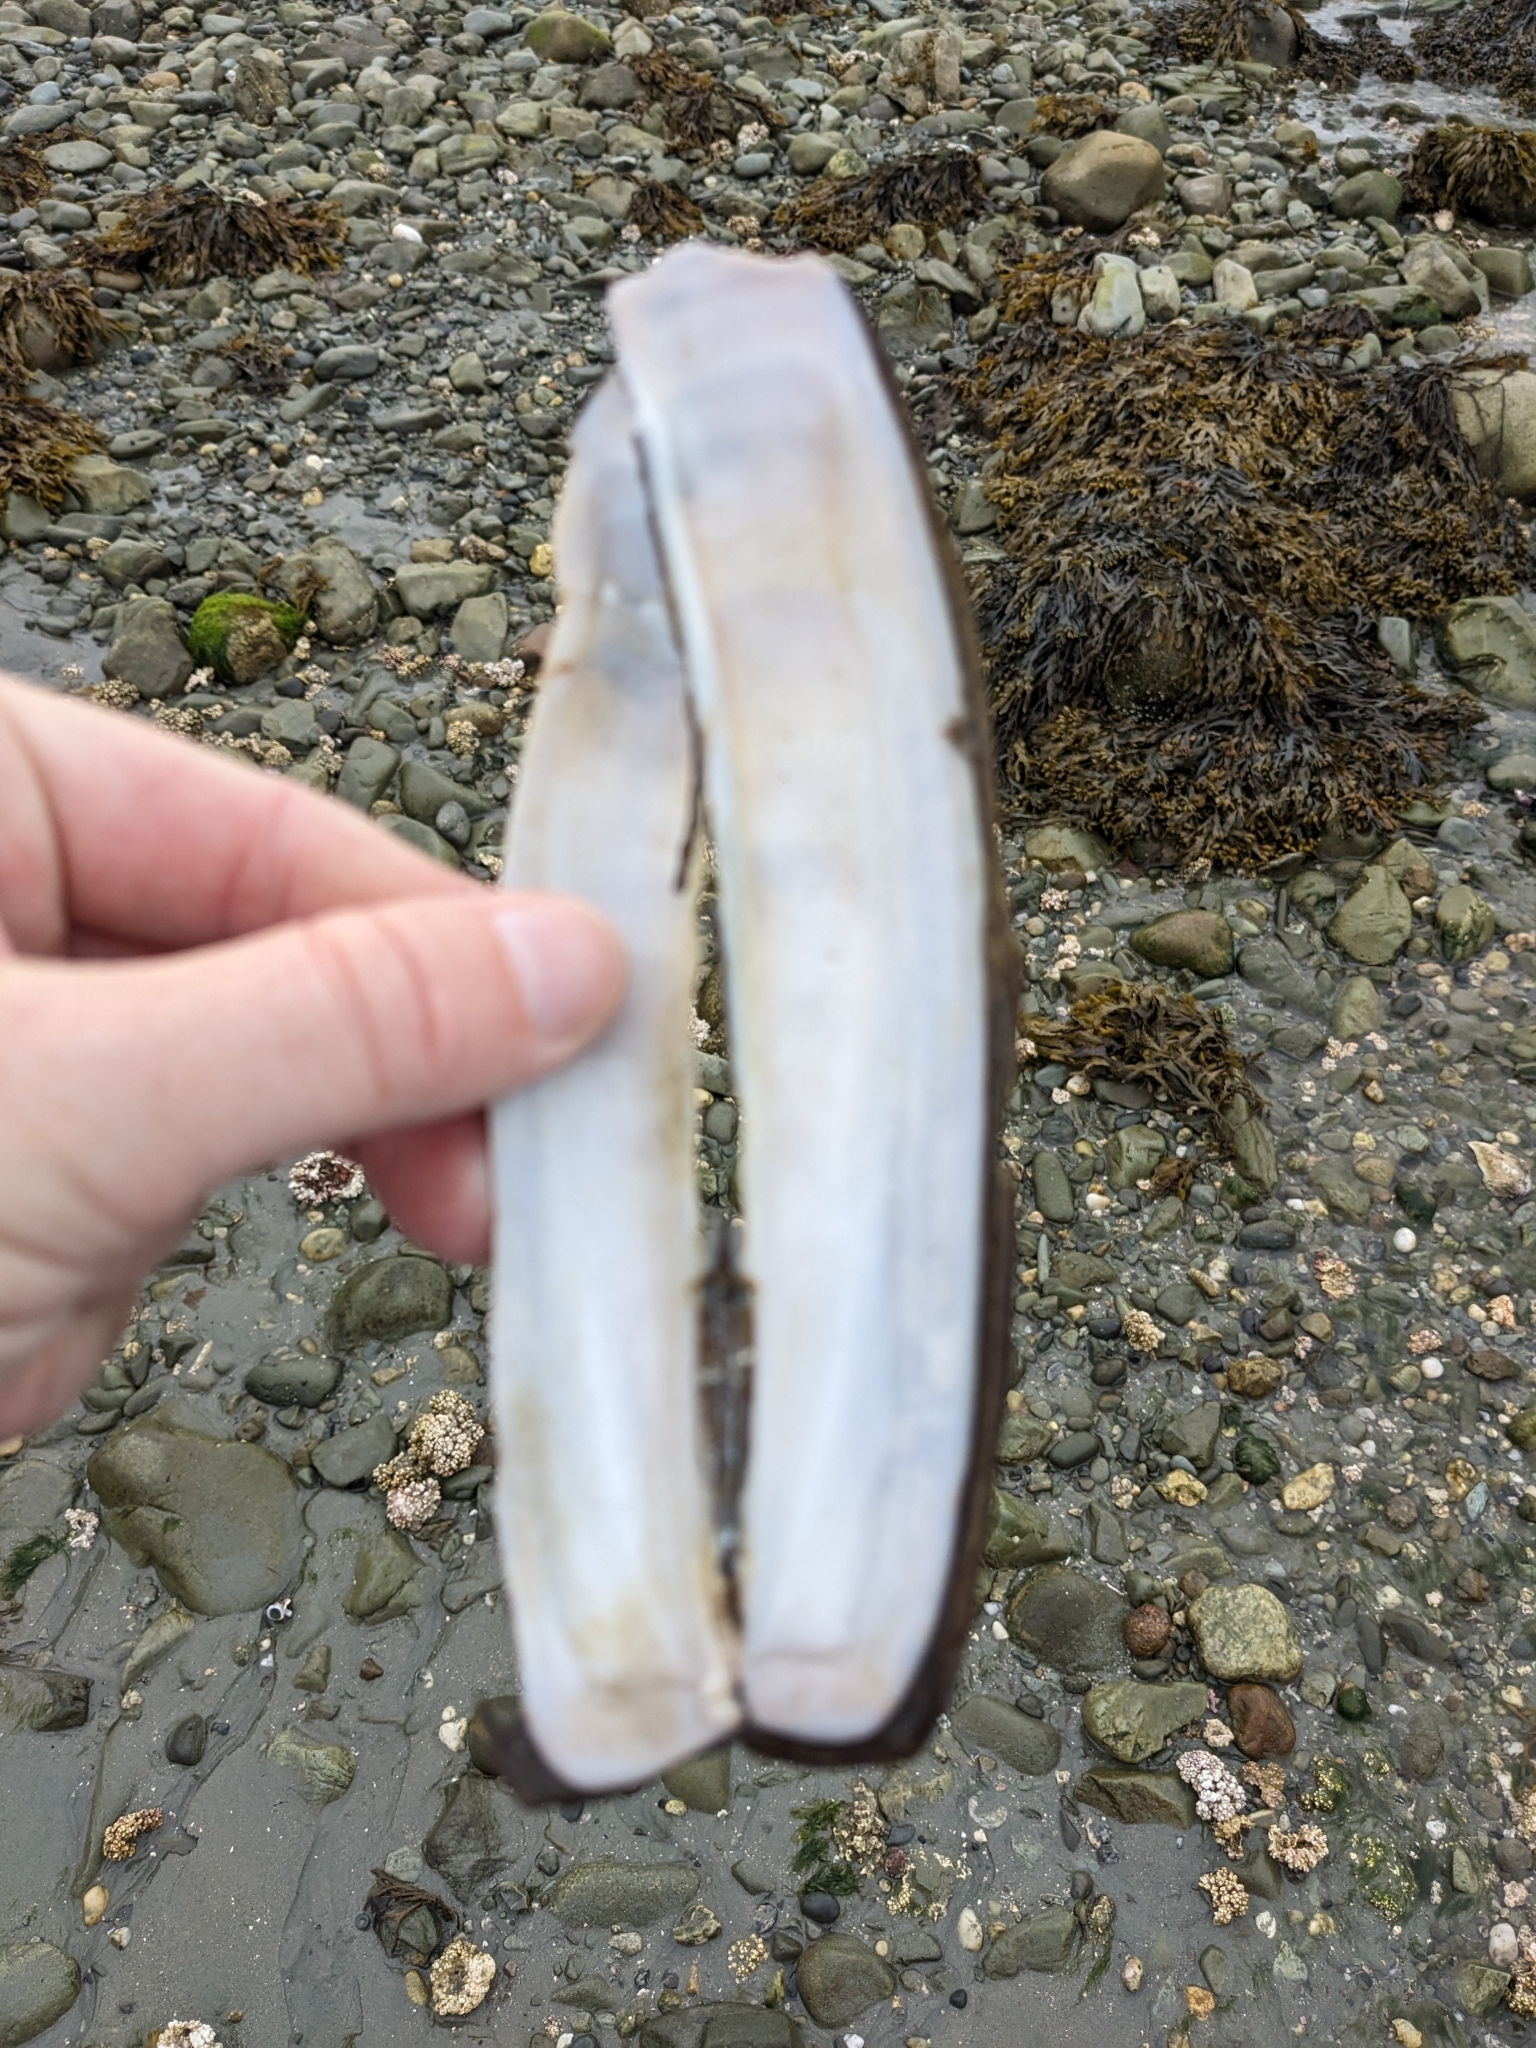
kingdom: Animalia
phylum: Mollusca
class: Bivalvia
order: Adapedonta
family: Pharidae
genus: Ensis
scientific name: Ensis leei
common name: American jack knife clam
